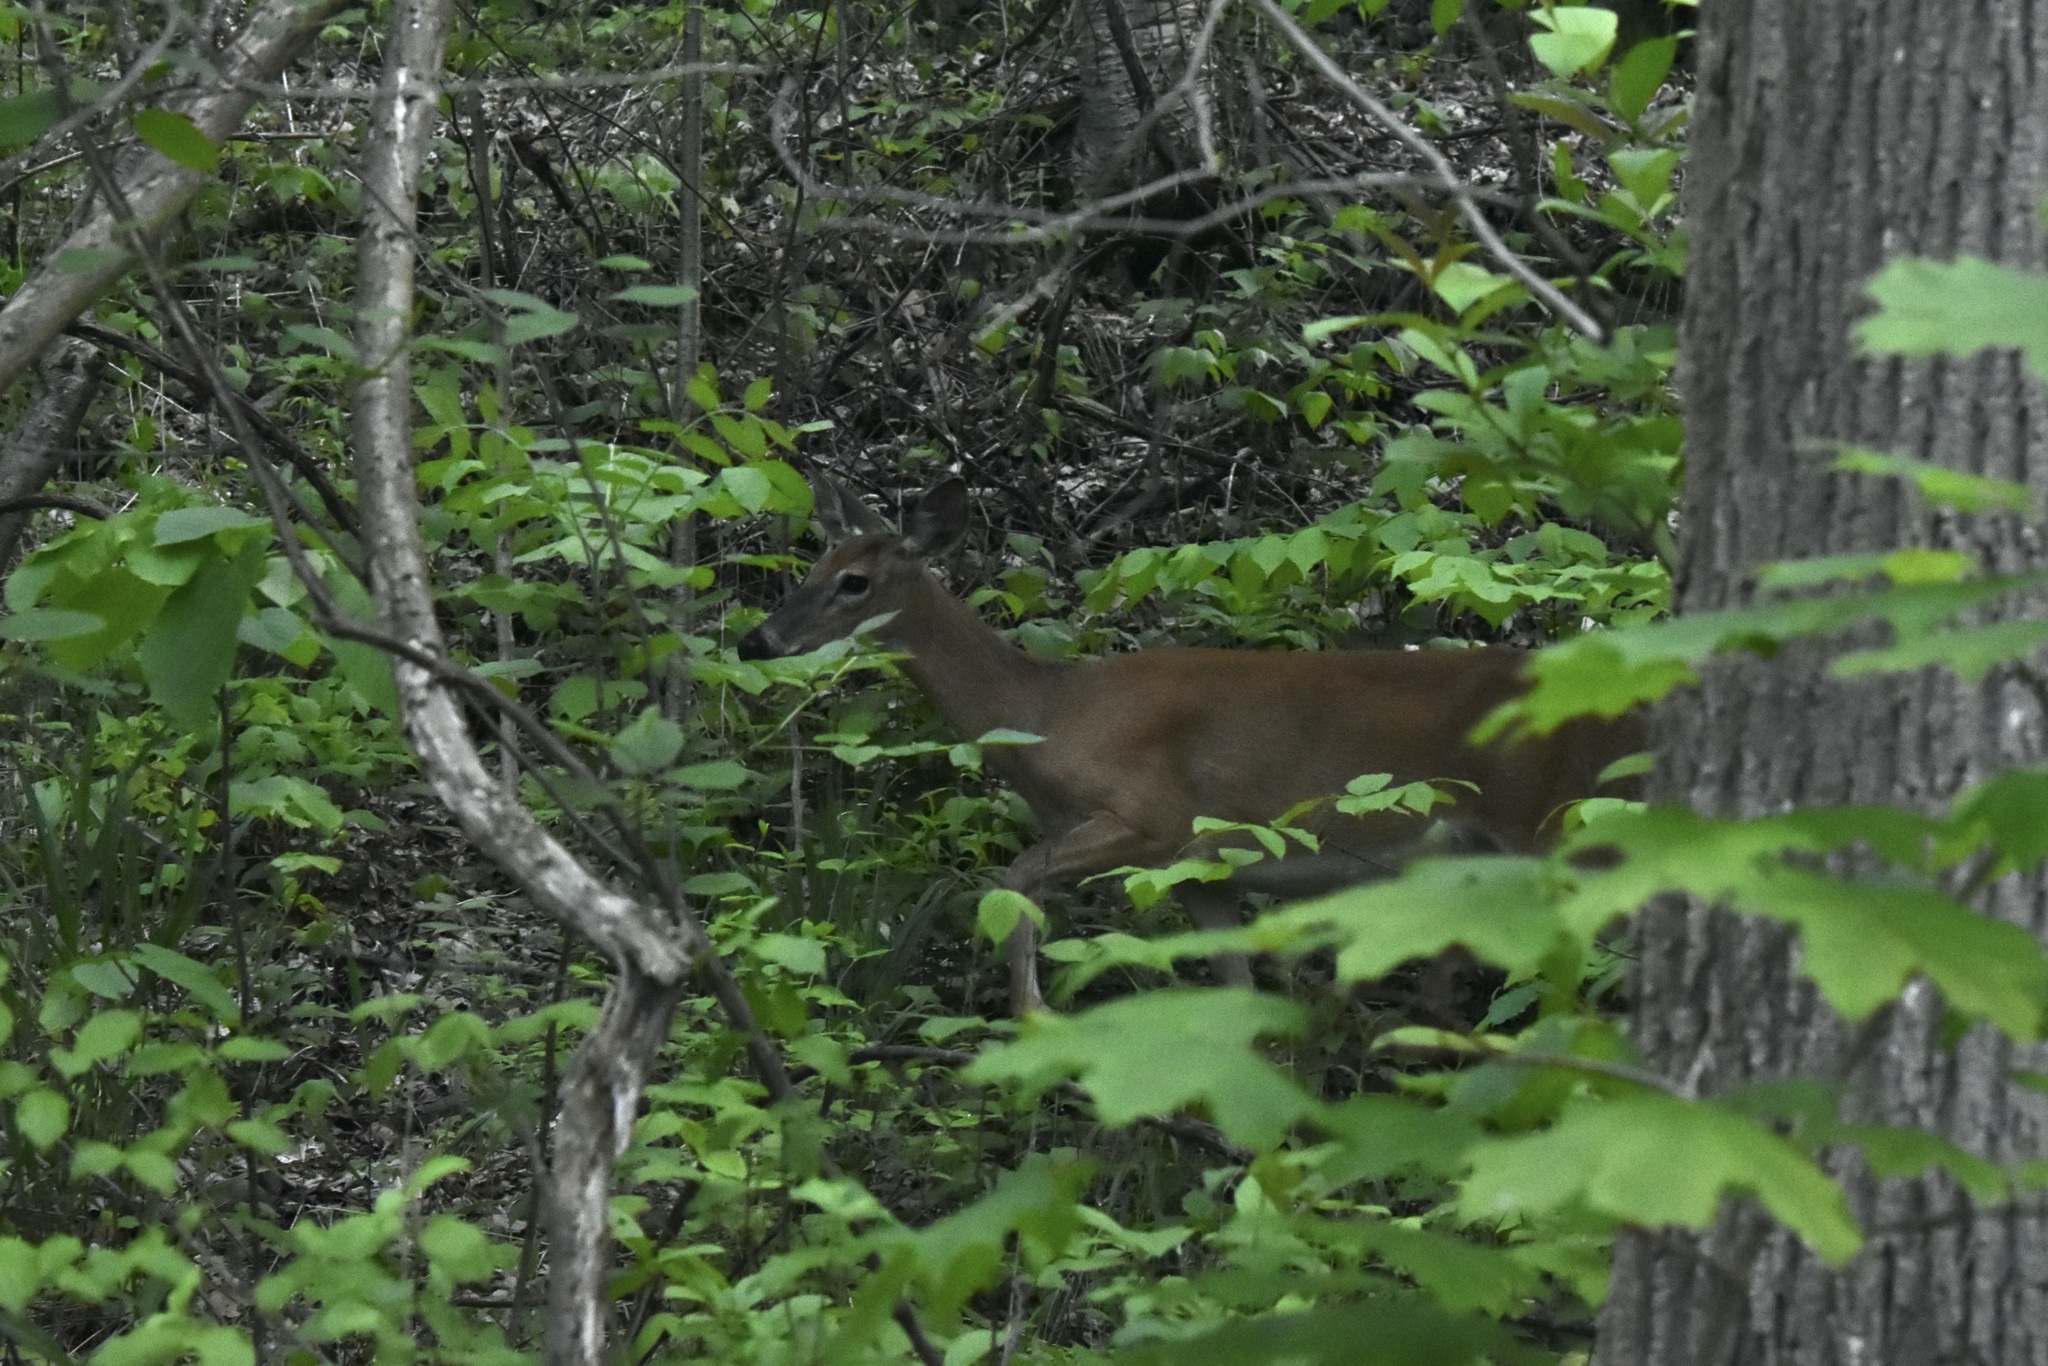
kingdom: Animalia
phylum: Chordata
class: Mammalia
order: Artiodactyla
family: Cervidae
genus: Odocoileus
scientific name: Odocoileus virginianus
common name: White-tailed deer
